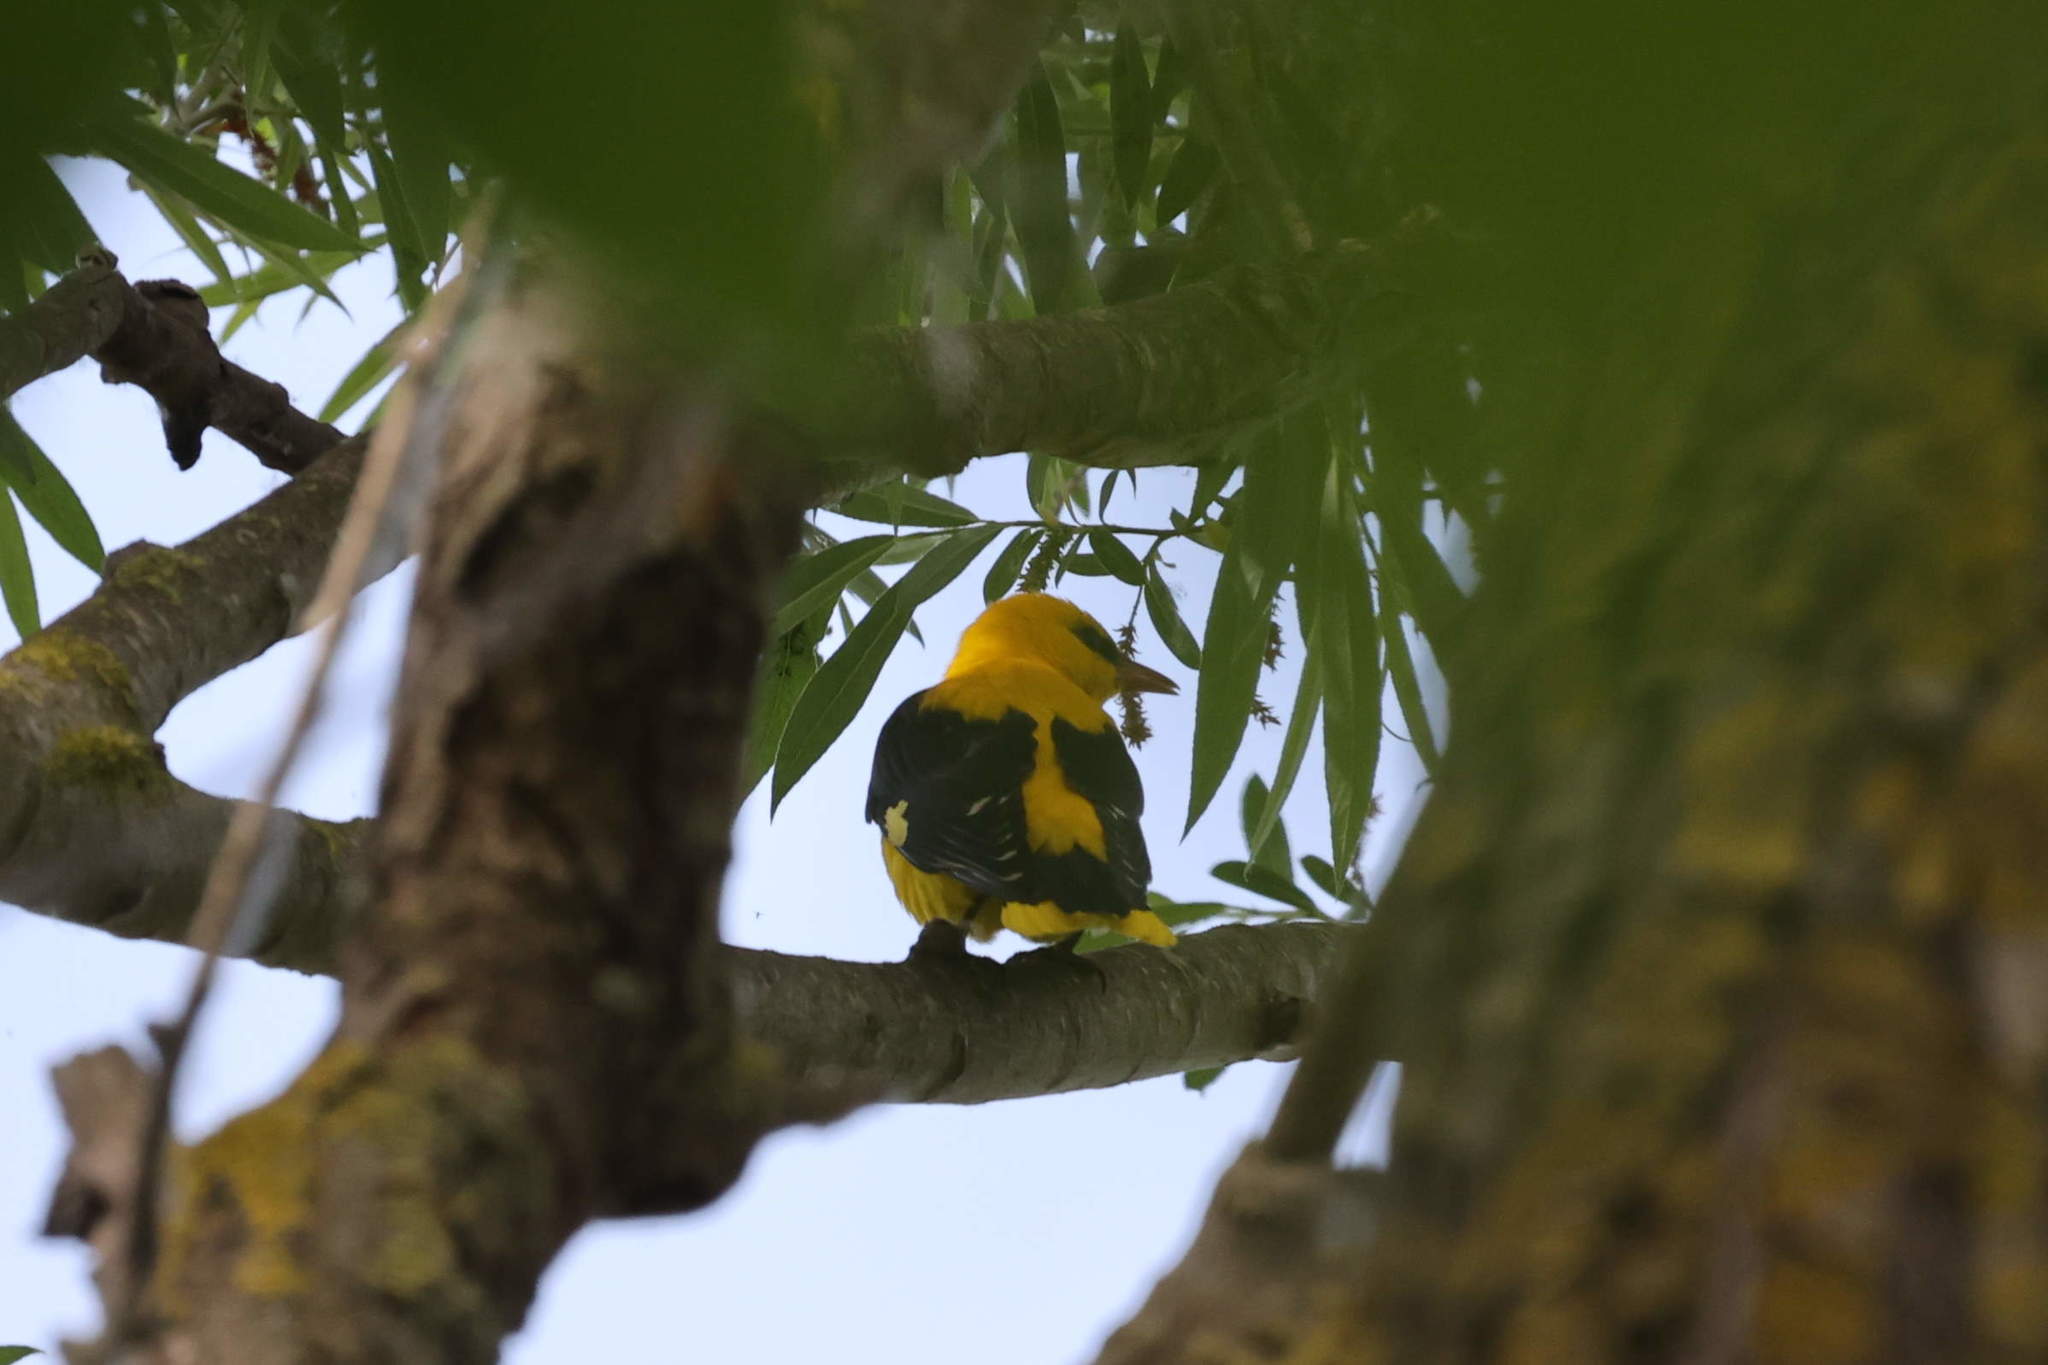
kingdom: Animalia
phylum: Chordata
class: Aves
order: Passeriformes
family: Oriolidae
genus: Oriolus
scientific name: Oriolus oriolus
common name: Eurasian golden oriole
